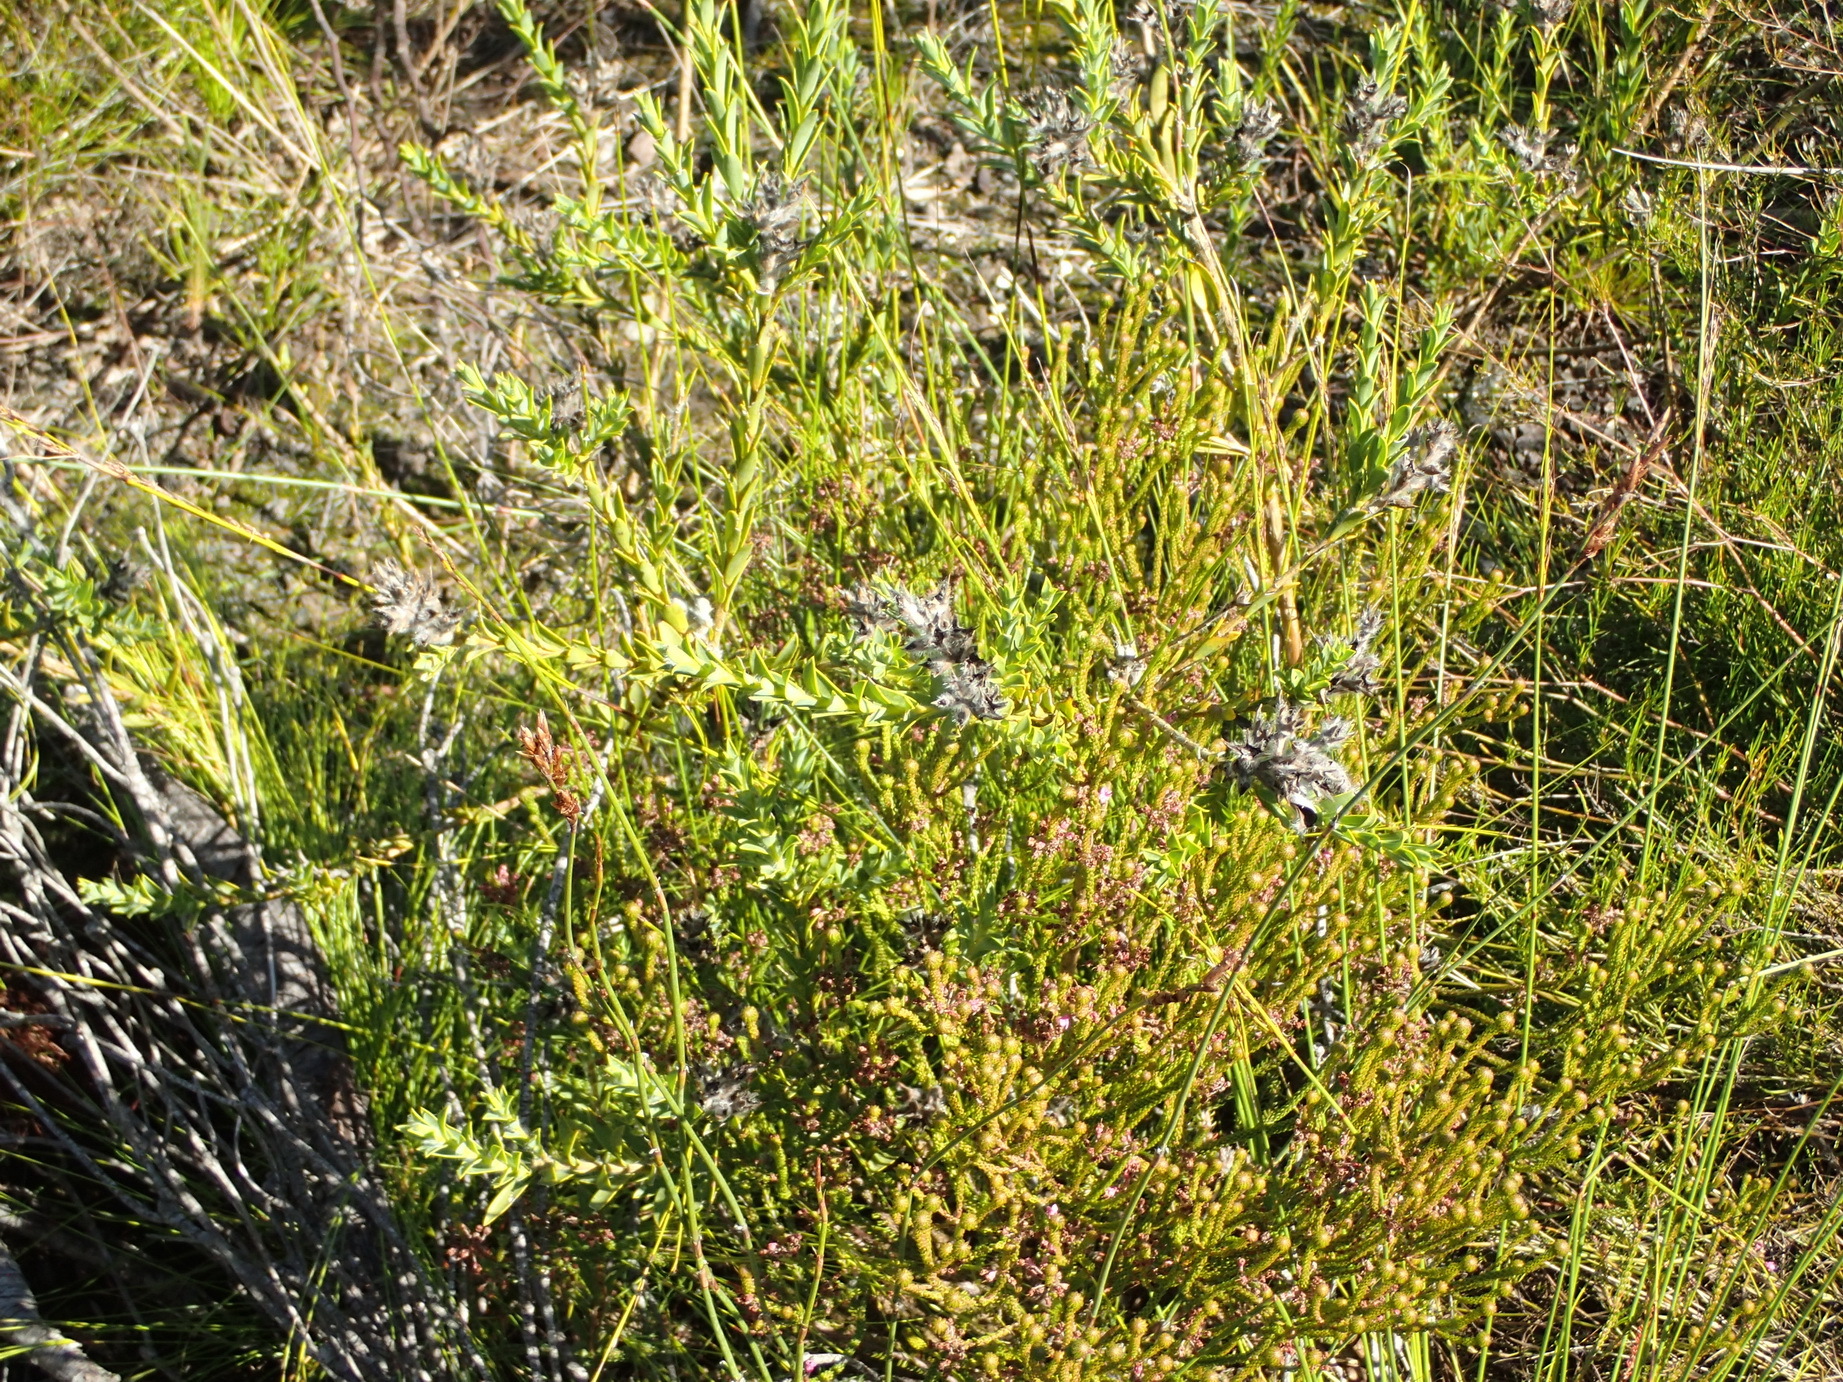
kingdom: Plantae
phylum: Tracheophyta
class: Magnoliopsida
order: Fabales
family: Fabaceae
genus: Liparia
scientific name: Liparia hirsuta
